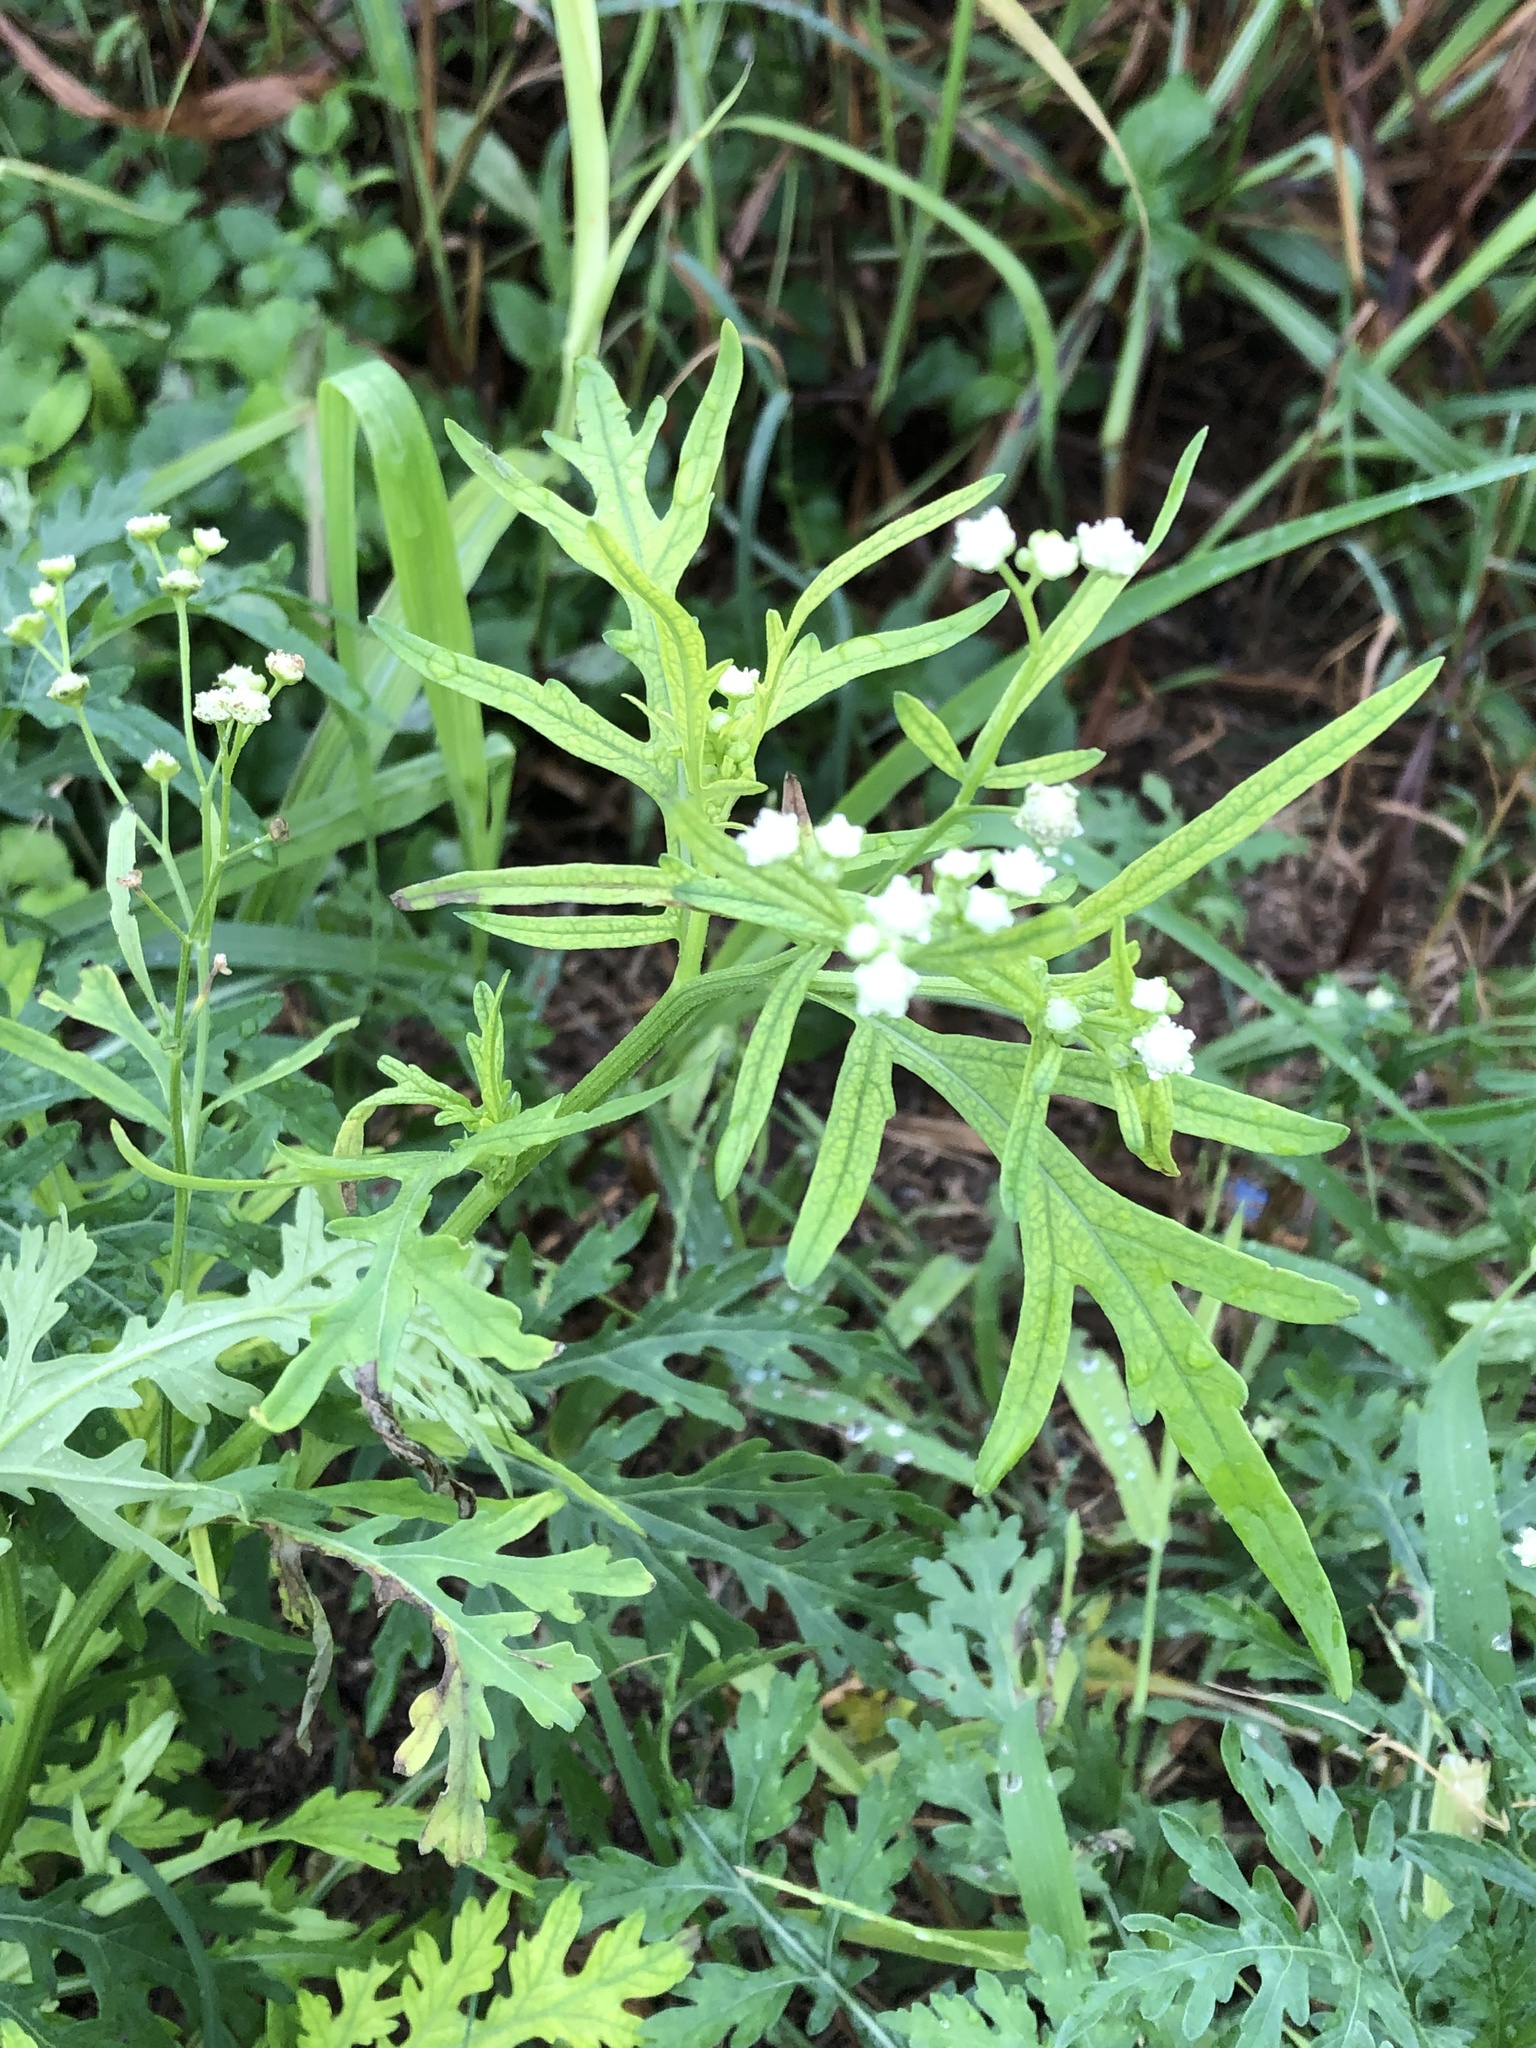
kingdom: Plantae
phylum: Tracheophyta
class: Magnoliopsida
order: Asterales
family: Asteraceae
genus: Parthenium
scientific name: Parthenium hysterophorus
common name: Santa maria feverfew
